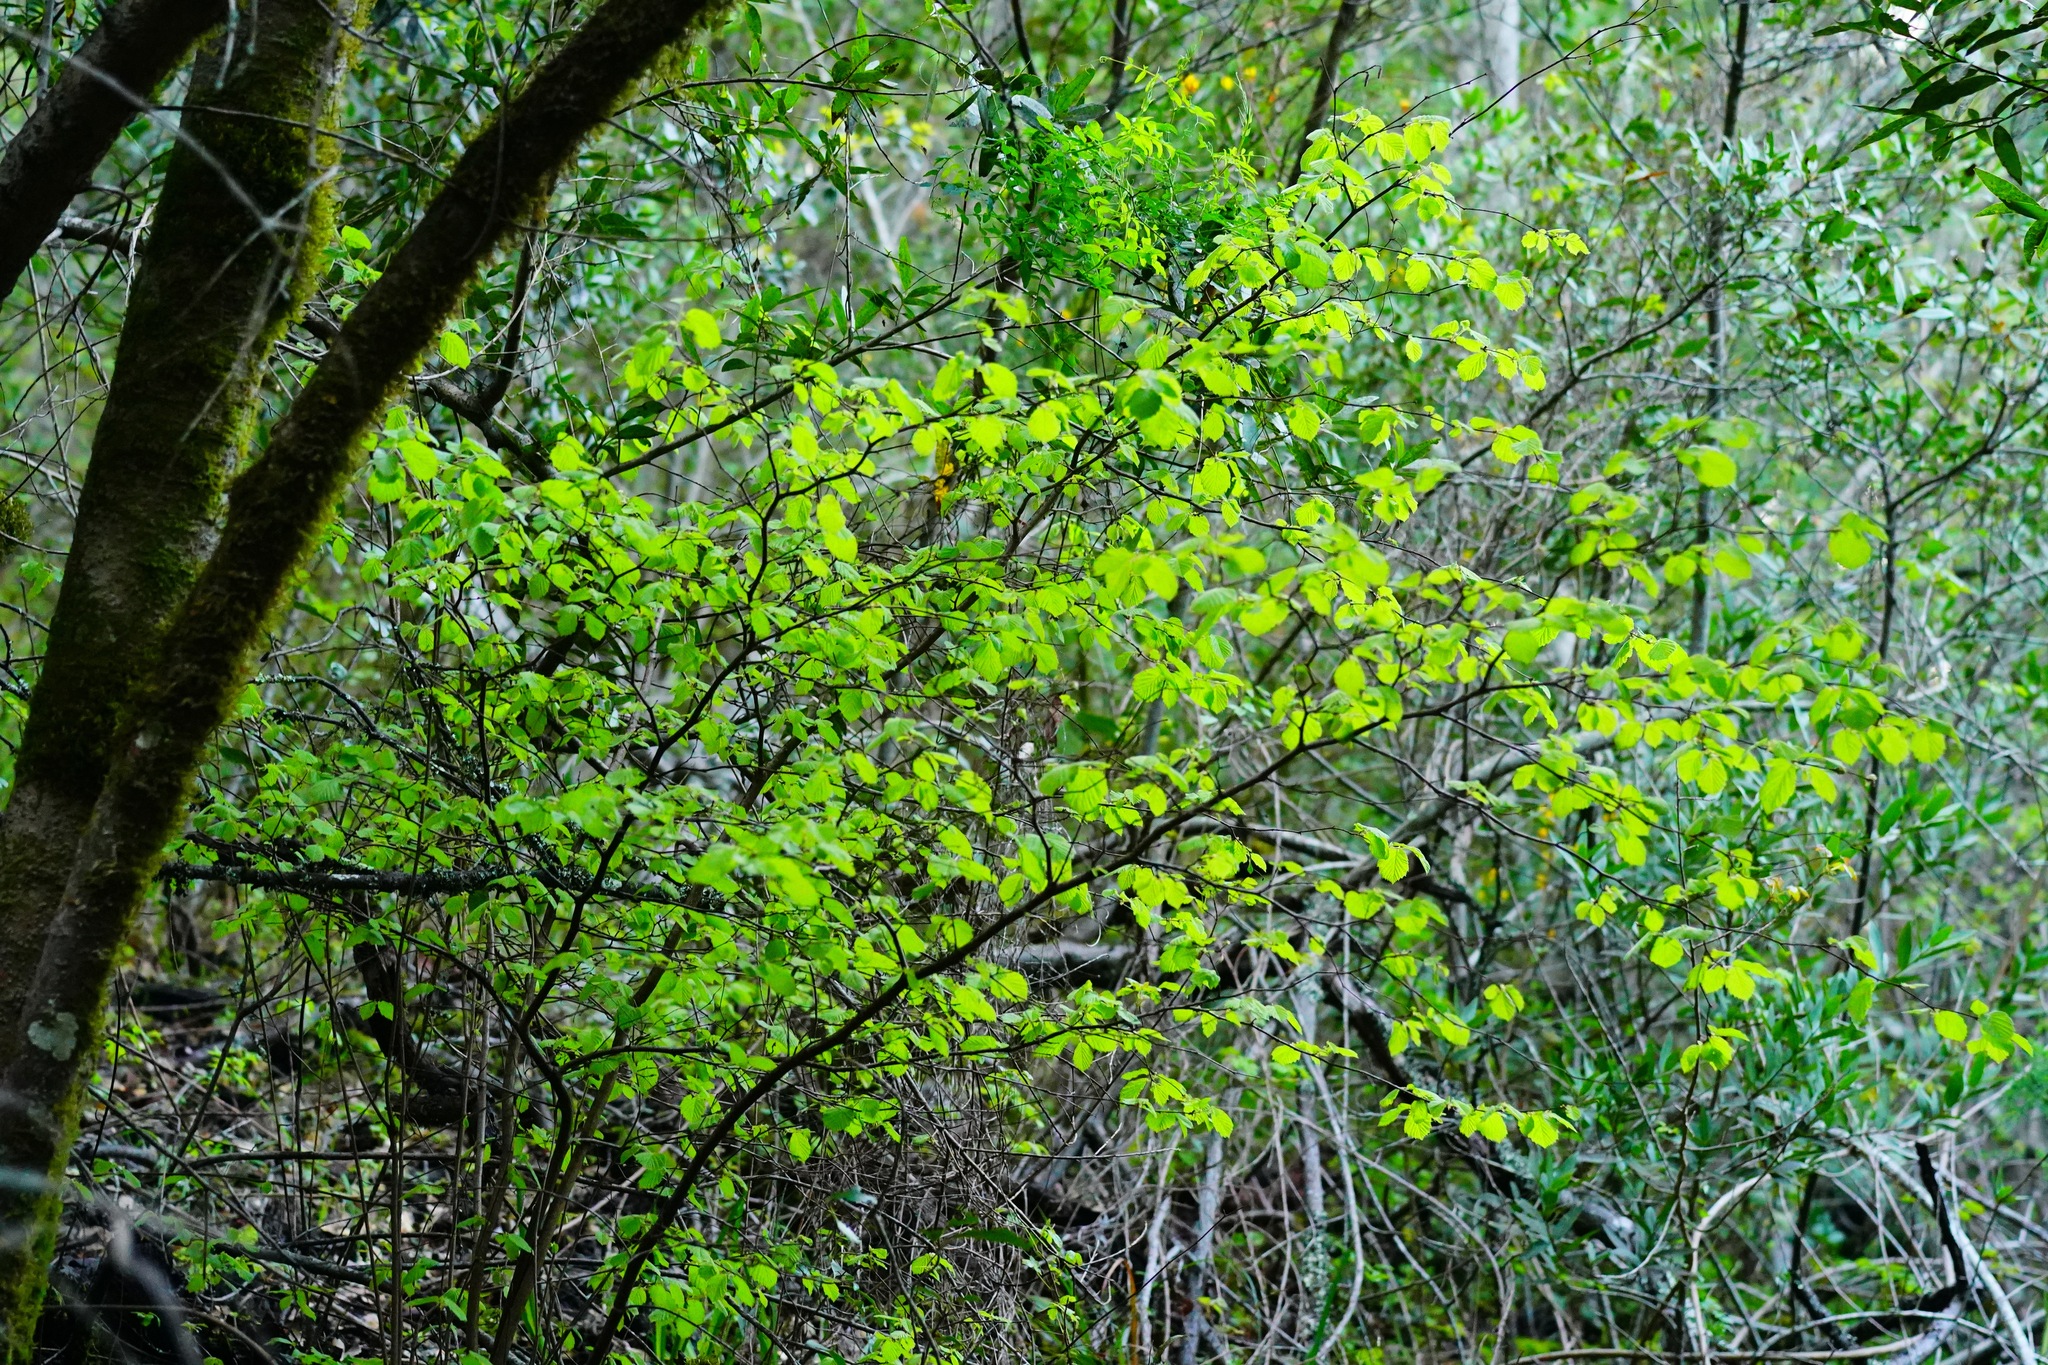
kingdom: Plantae
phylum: Tracheophyta
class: Magnoliopsida
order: Fagales
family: Betulaceae
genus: Corylus
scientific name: Corylus cornuta
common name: Beaked hazel
